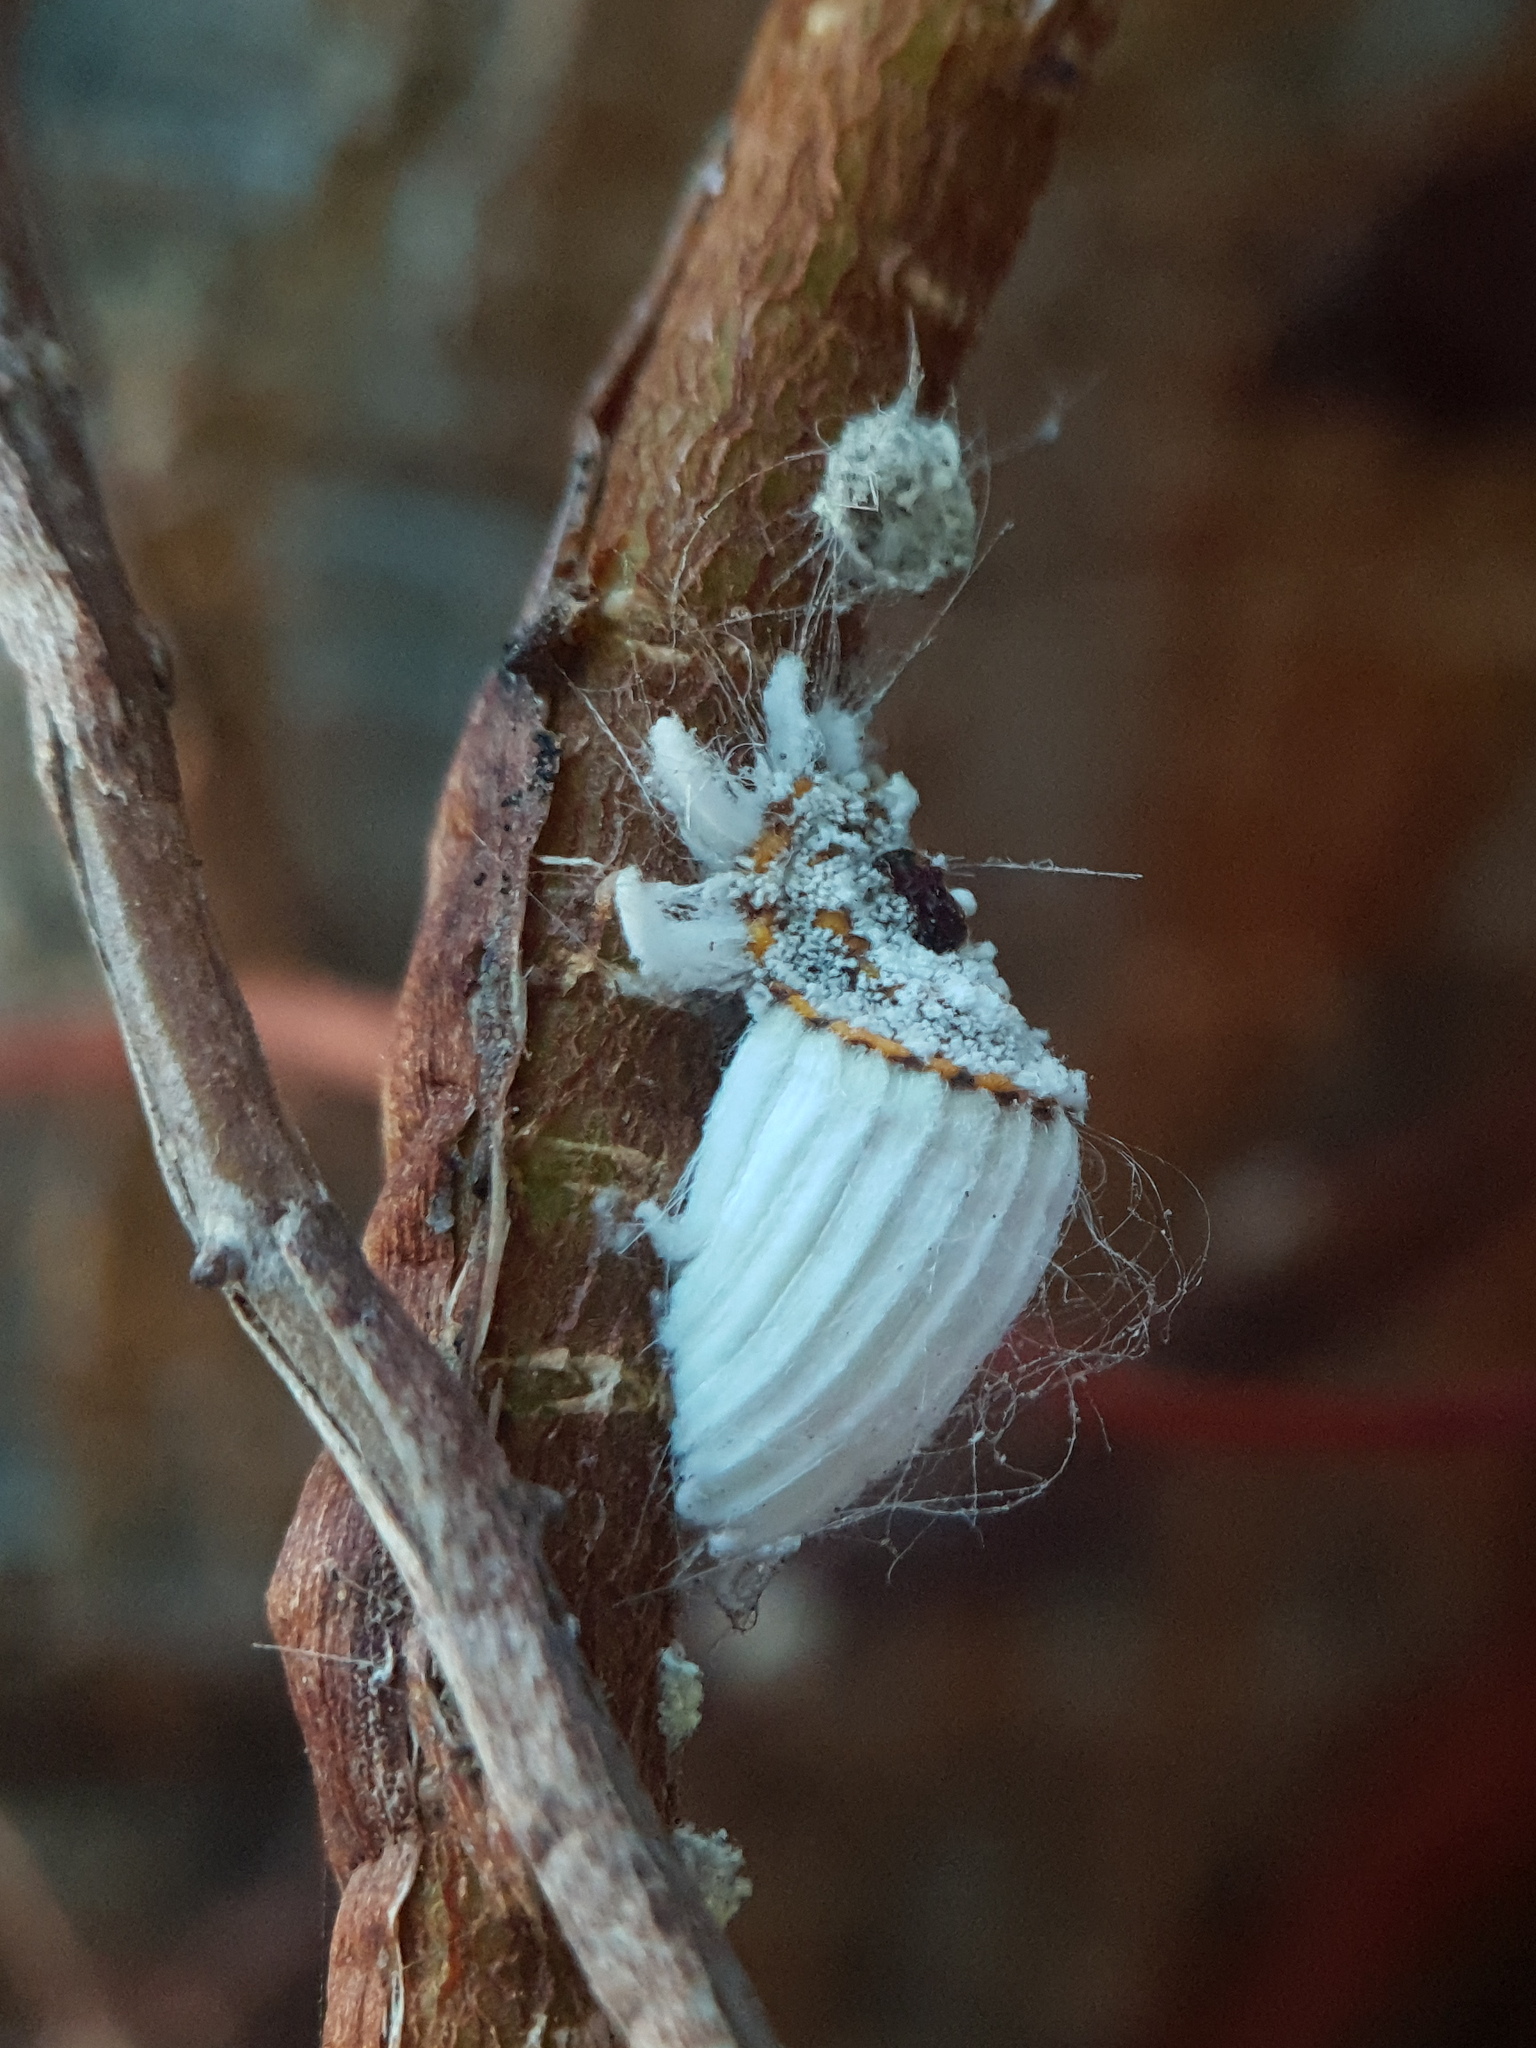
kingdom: Animalia
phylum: Arthropoda
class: Insecta
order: Hemiptera
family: Margarodidae
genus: Icerya
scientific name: Icerya purchasi
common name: Cottony cushion scale
